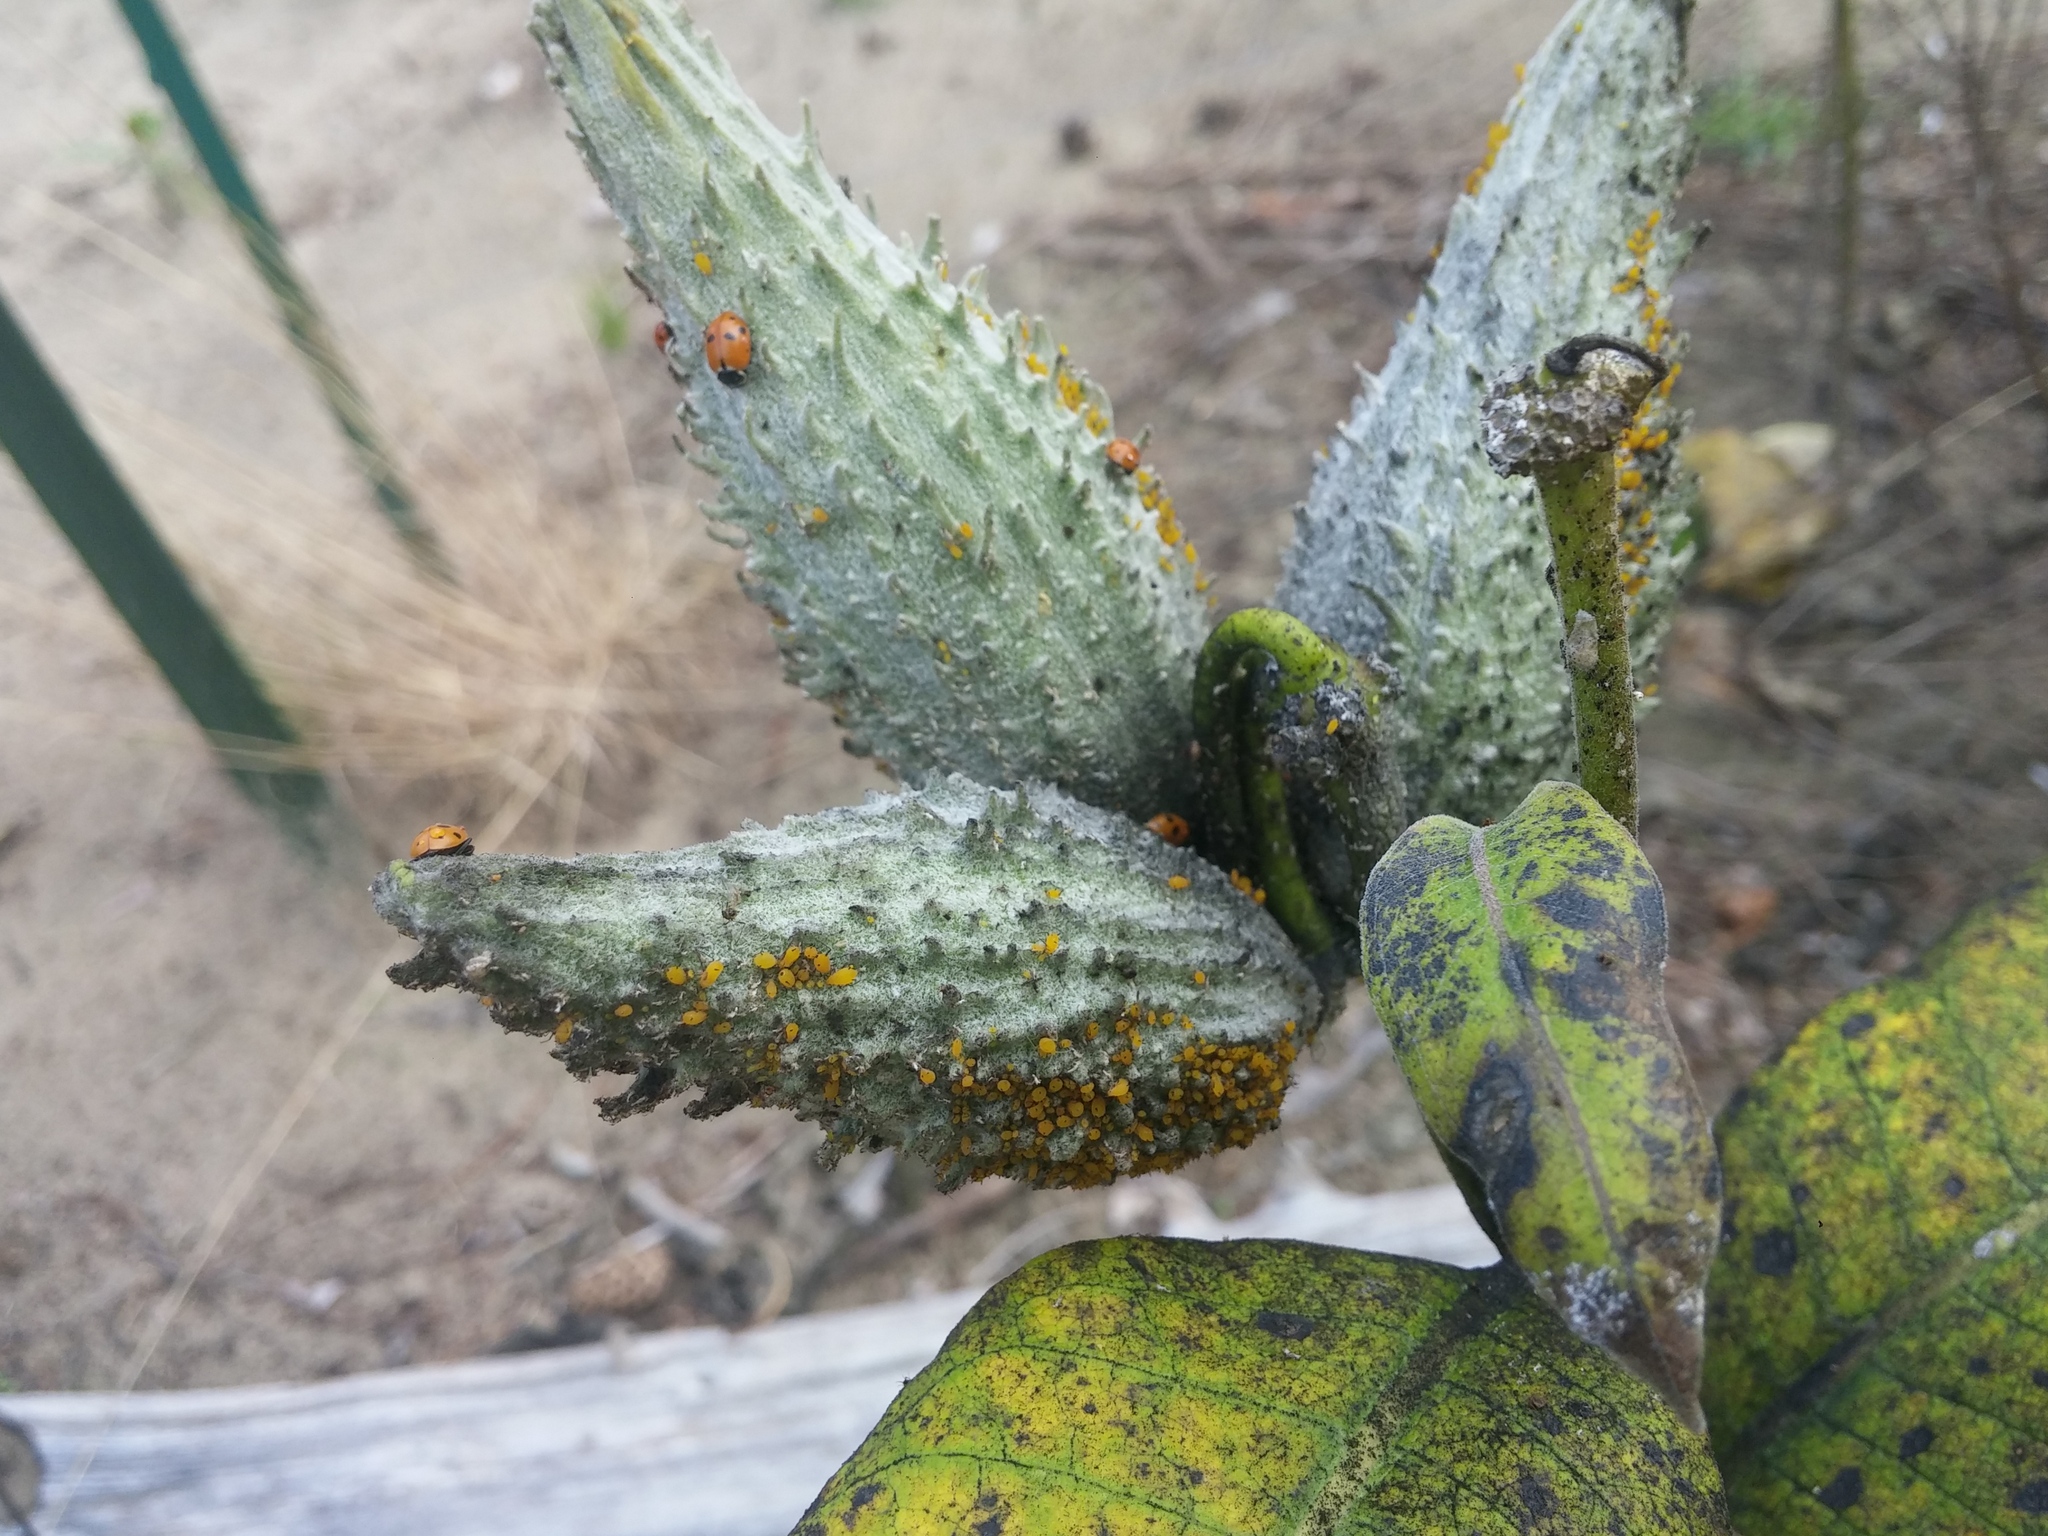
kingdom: Animalia
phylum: Arthropoda
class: Insecta
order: Hemiptera
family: Aphididae
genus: Aphis
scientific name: Aphis nerii
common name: Oleander aphid
